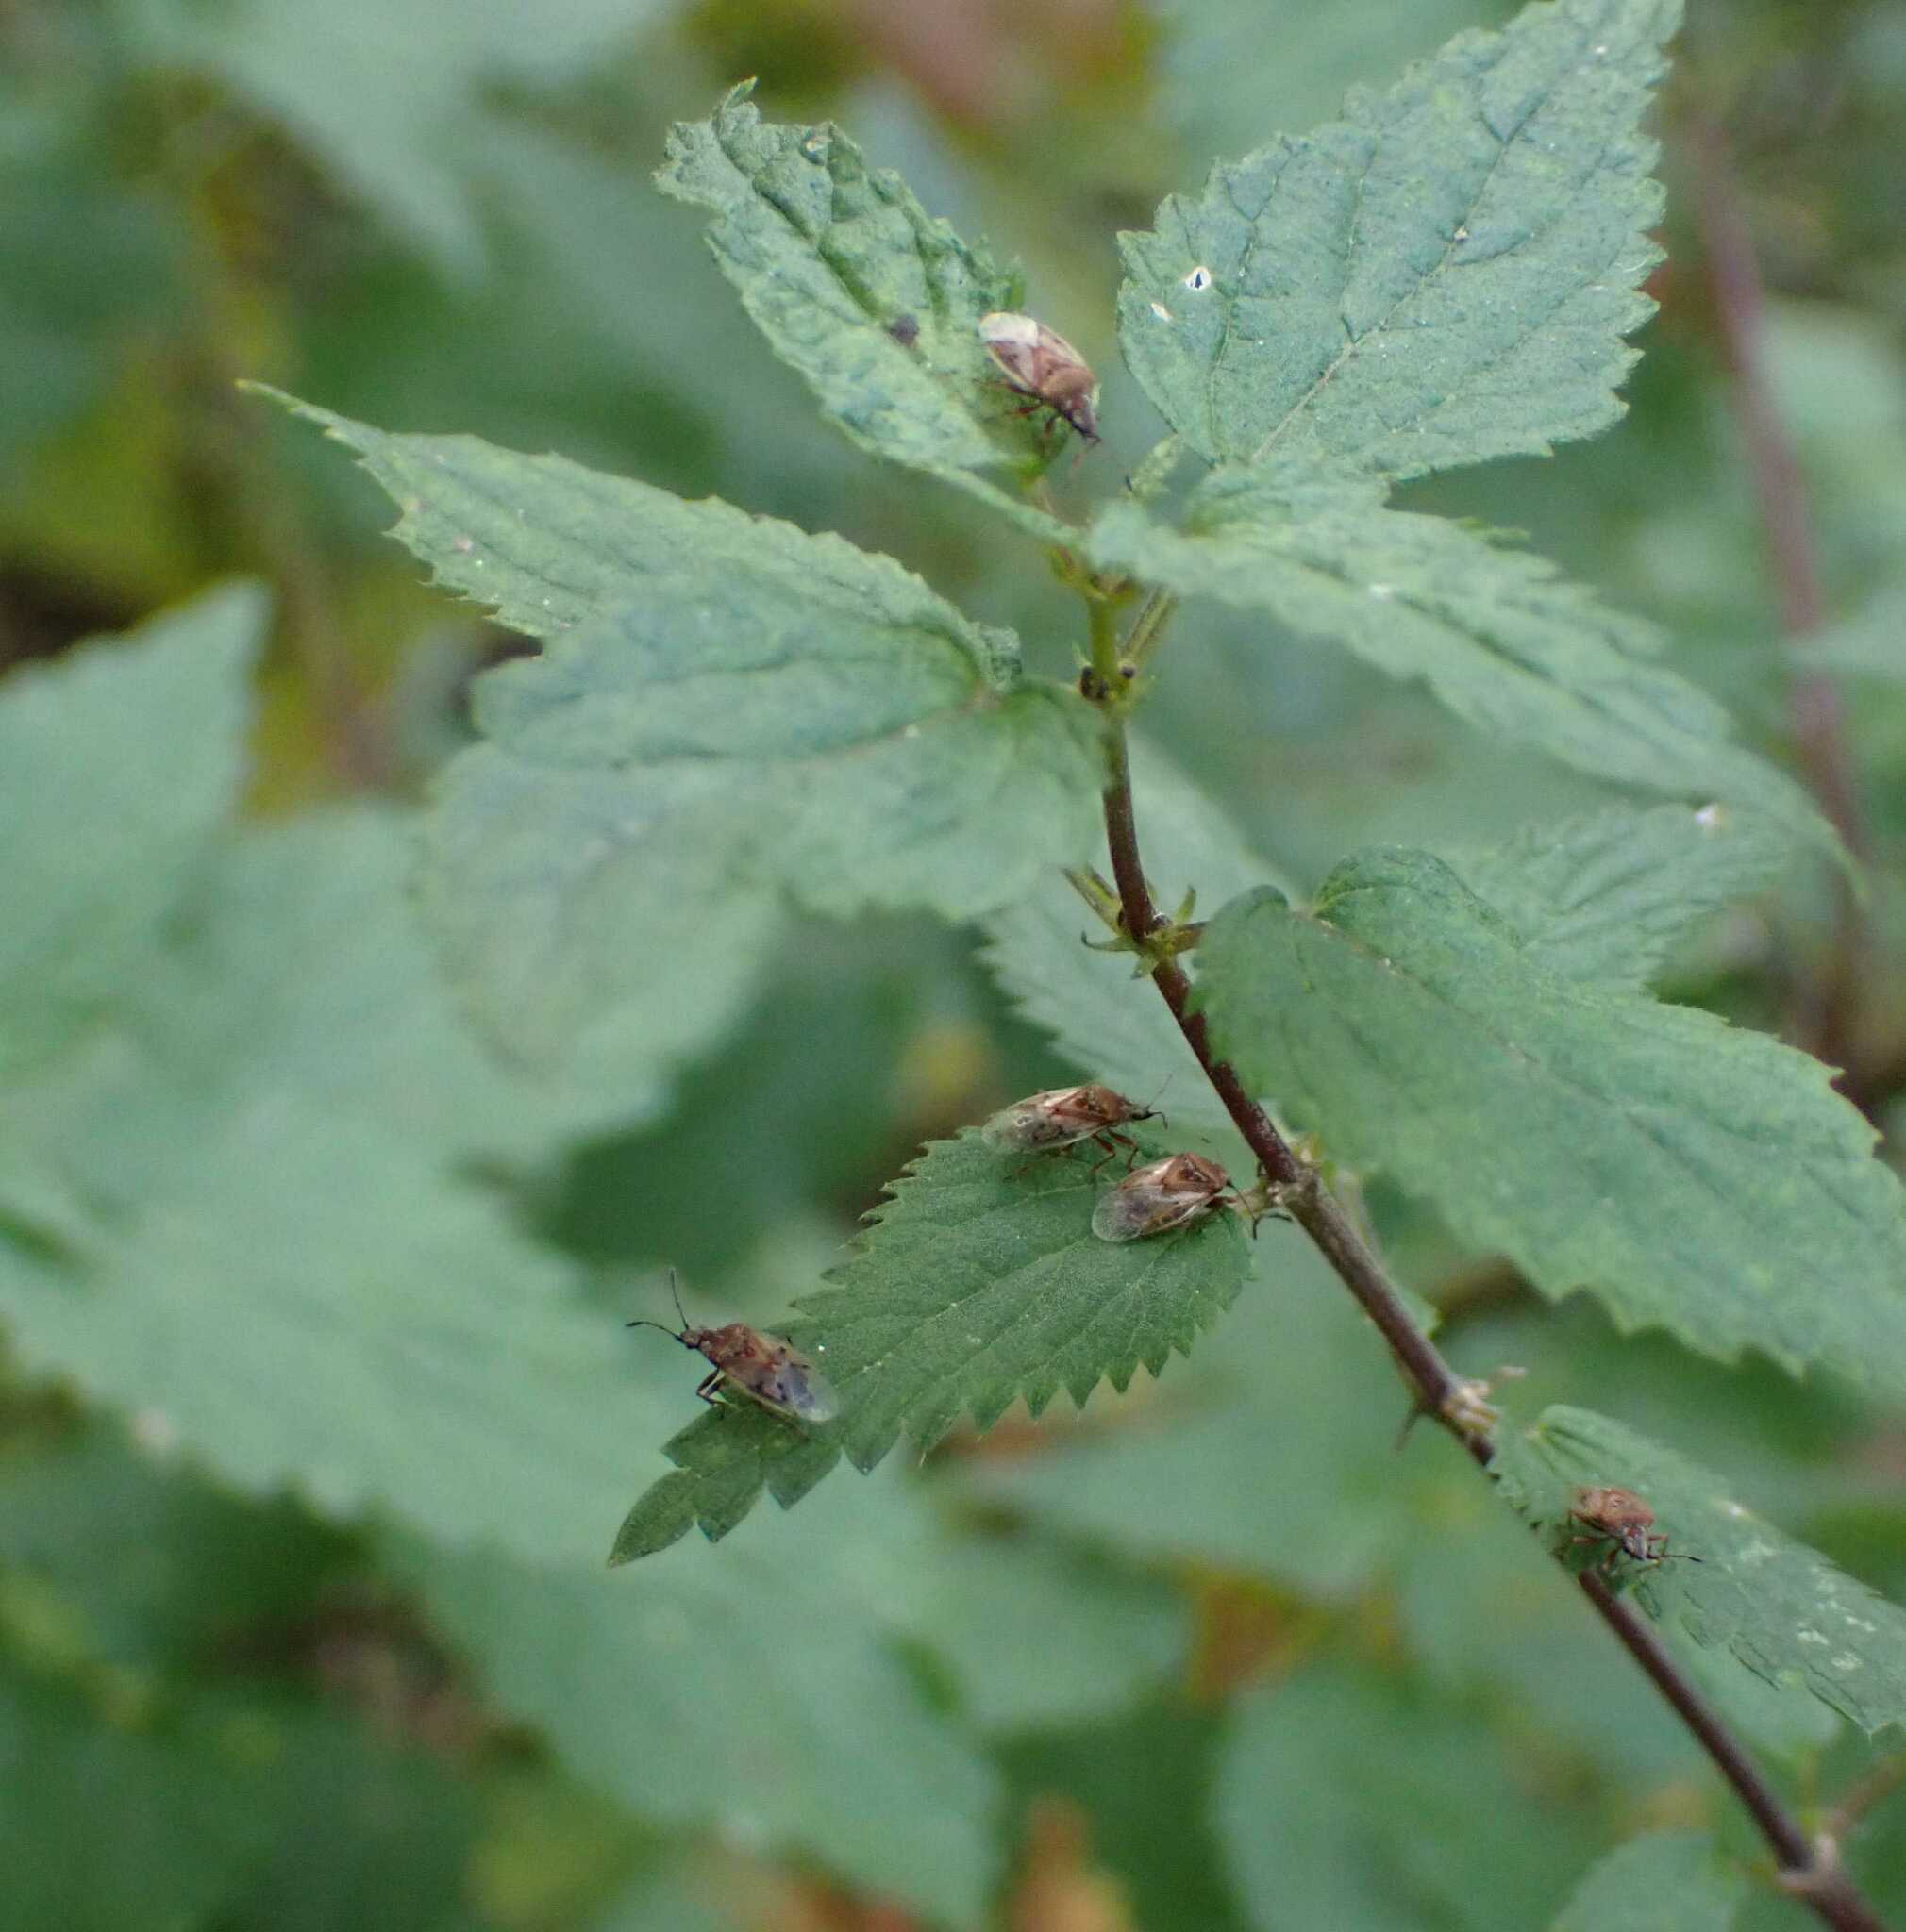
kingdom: Animalia
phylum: Arthropoda
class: Insecta
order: Hemiptera
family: Lygaeidae
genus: Kleidocerys
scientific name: Kleidocerys resedae
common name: Birch catkin bug
